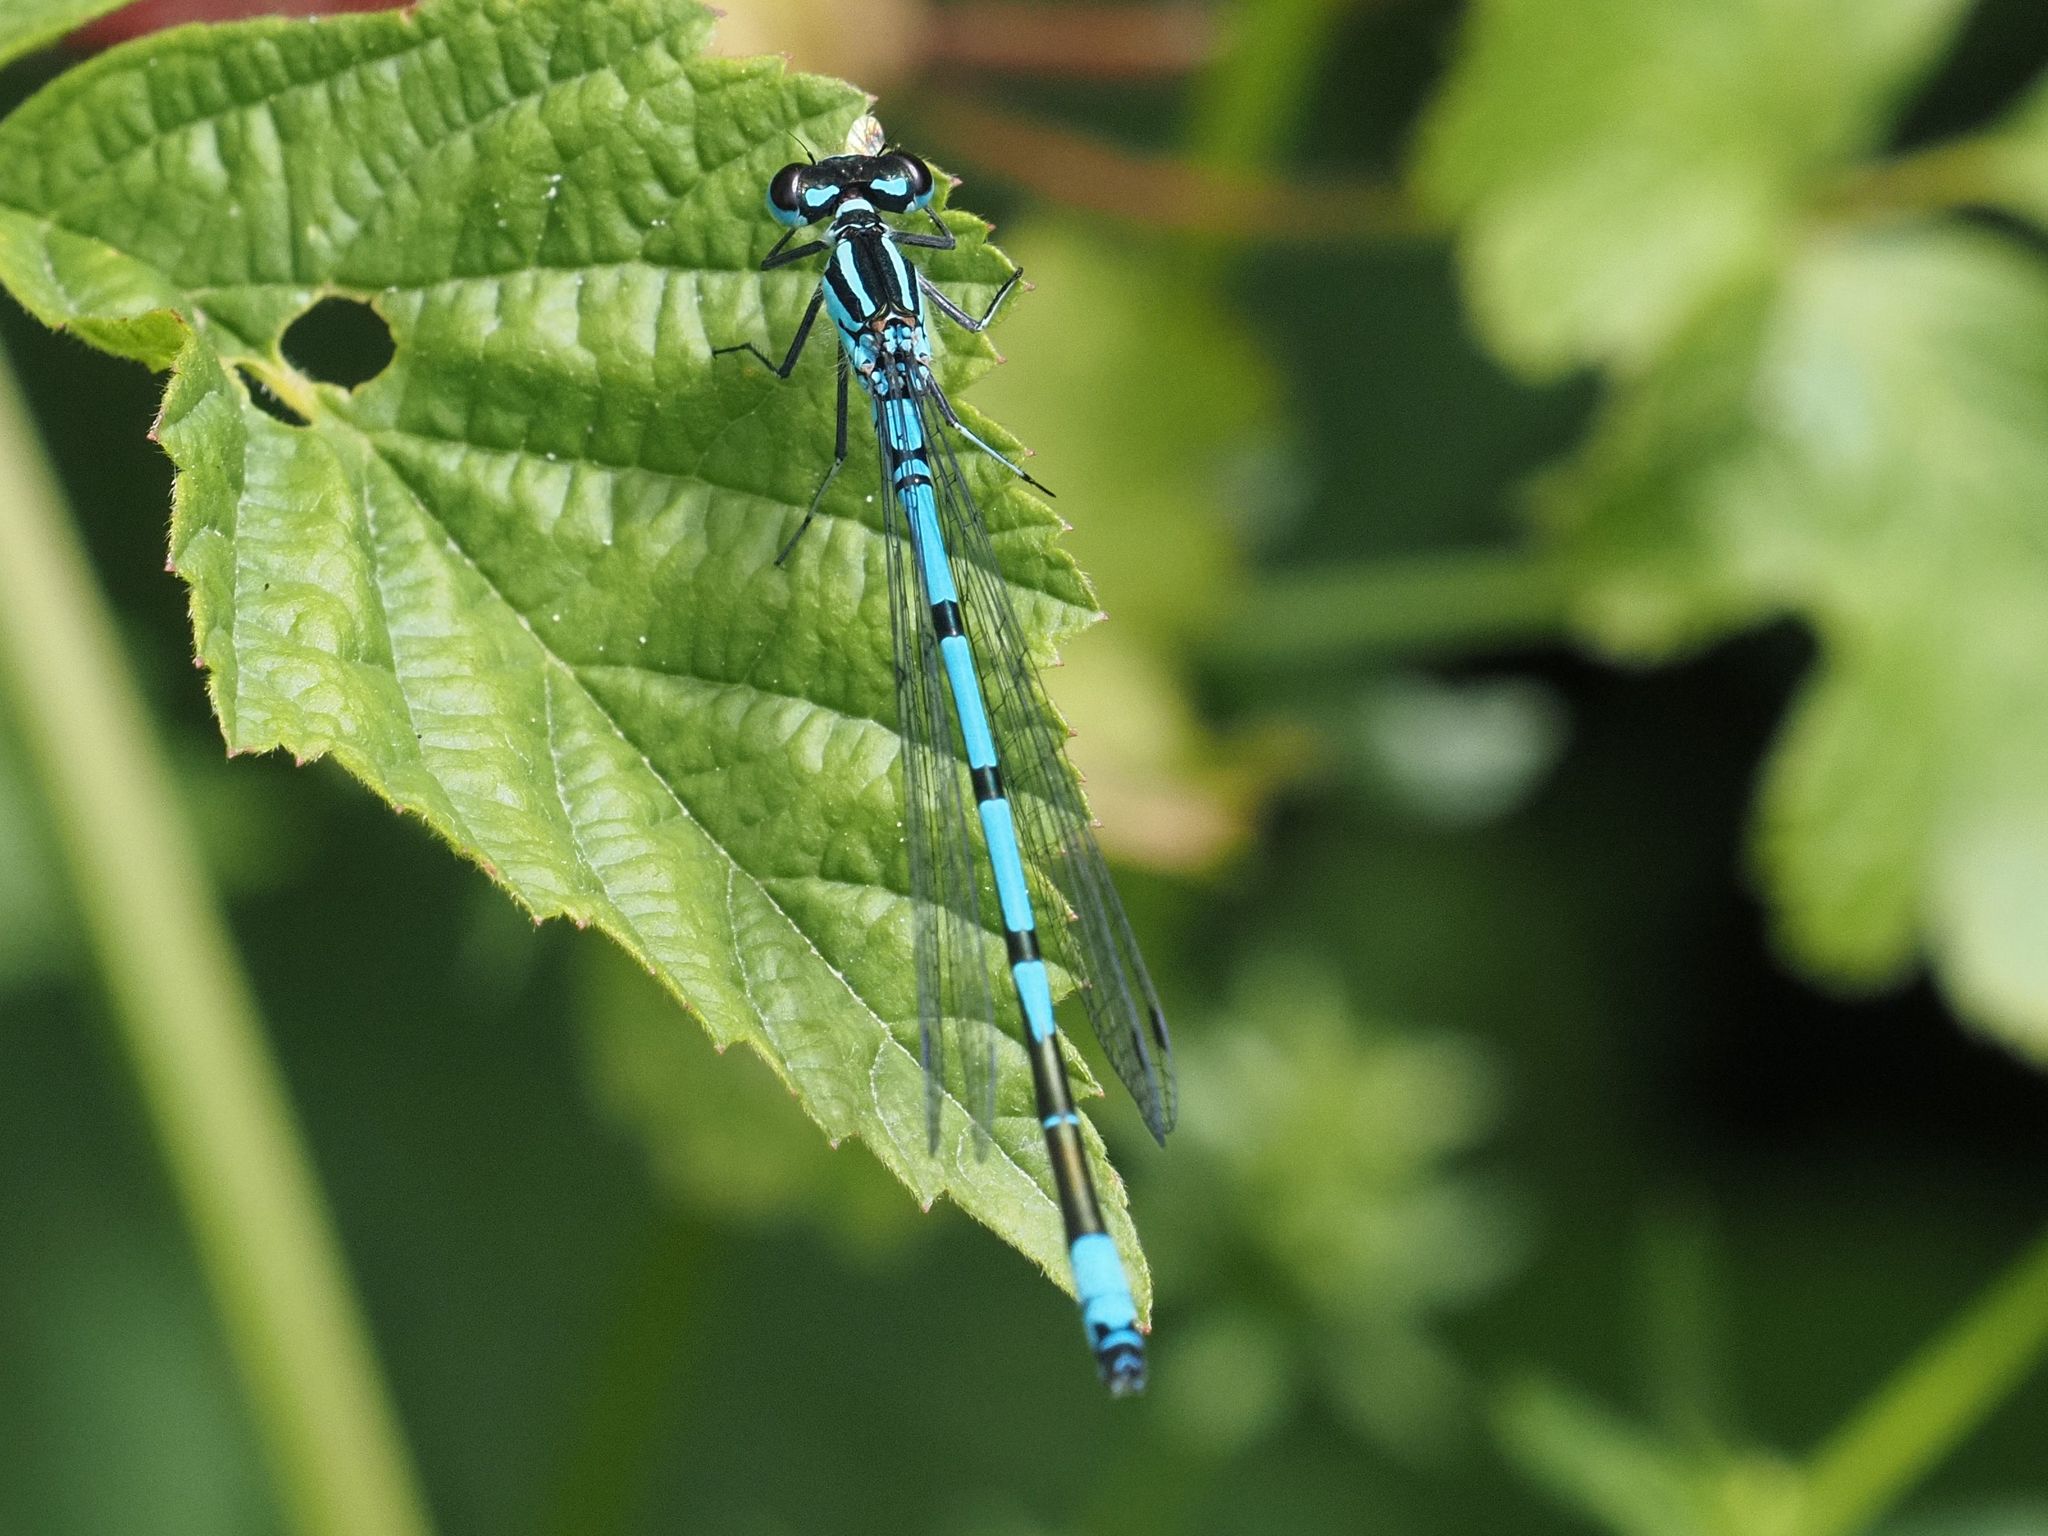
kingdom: Animalia
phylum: Arthropoda
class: Insecta
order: Odonata
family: Coenagrionidae
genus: Coenagrion
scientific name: Coenagrion puella
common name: Azure damselfly
